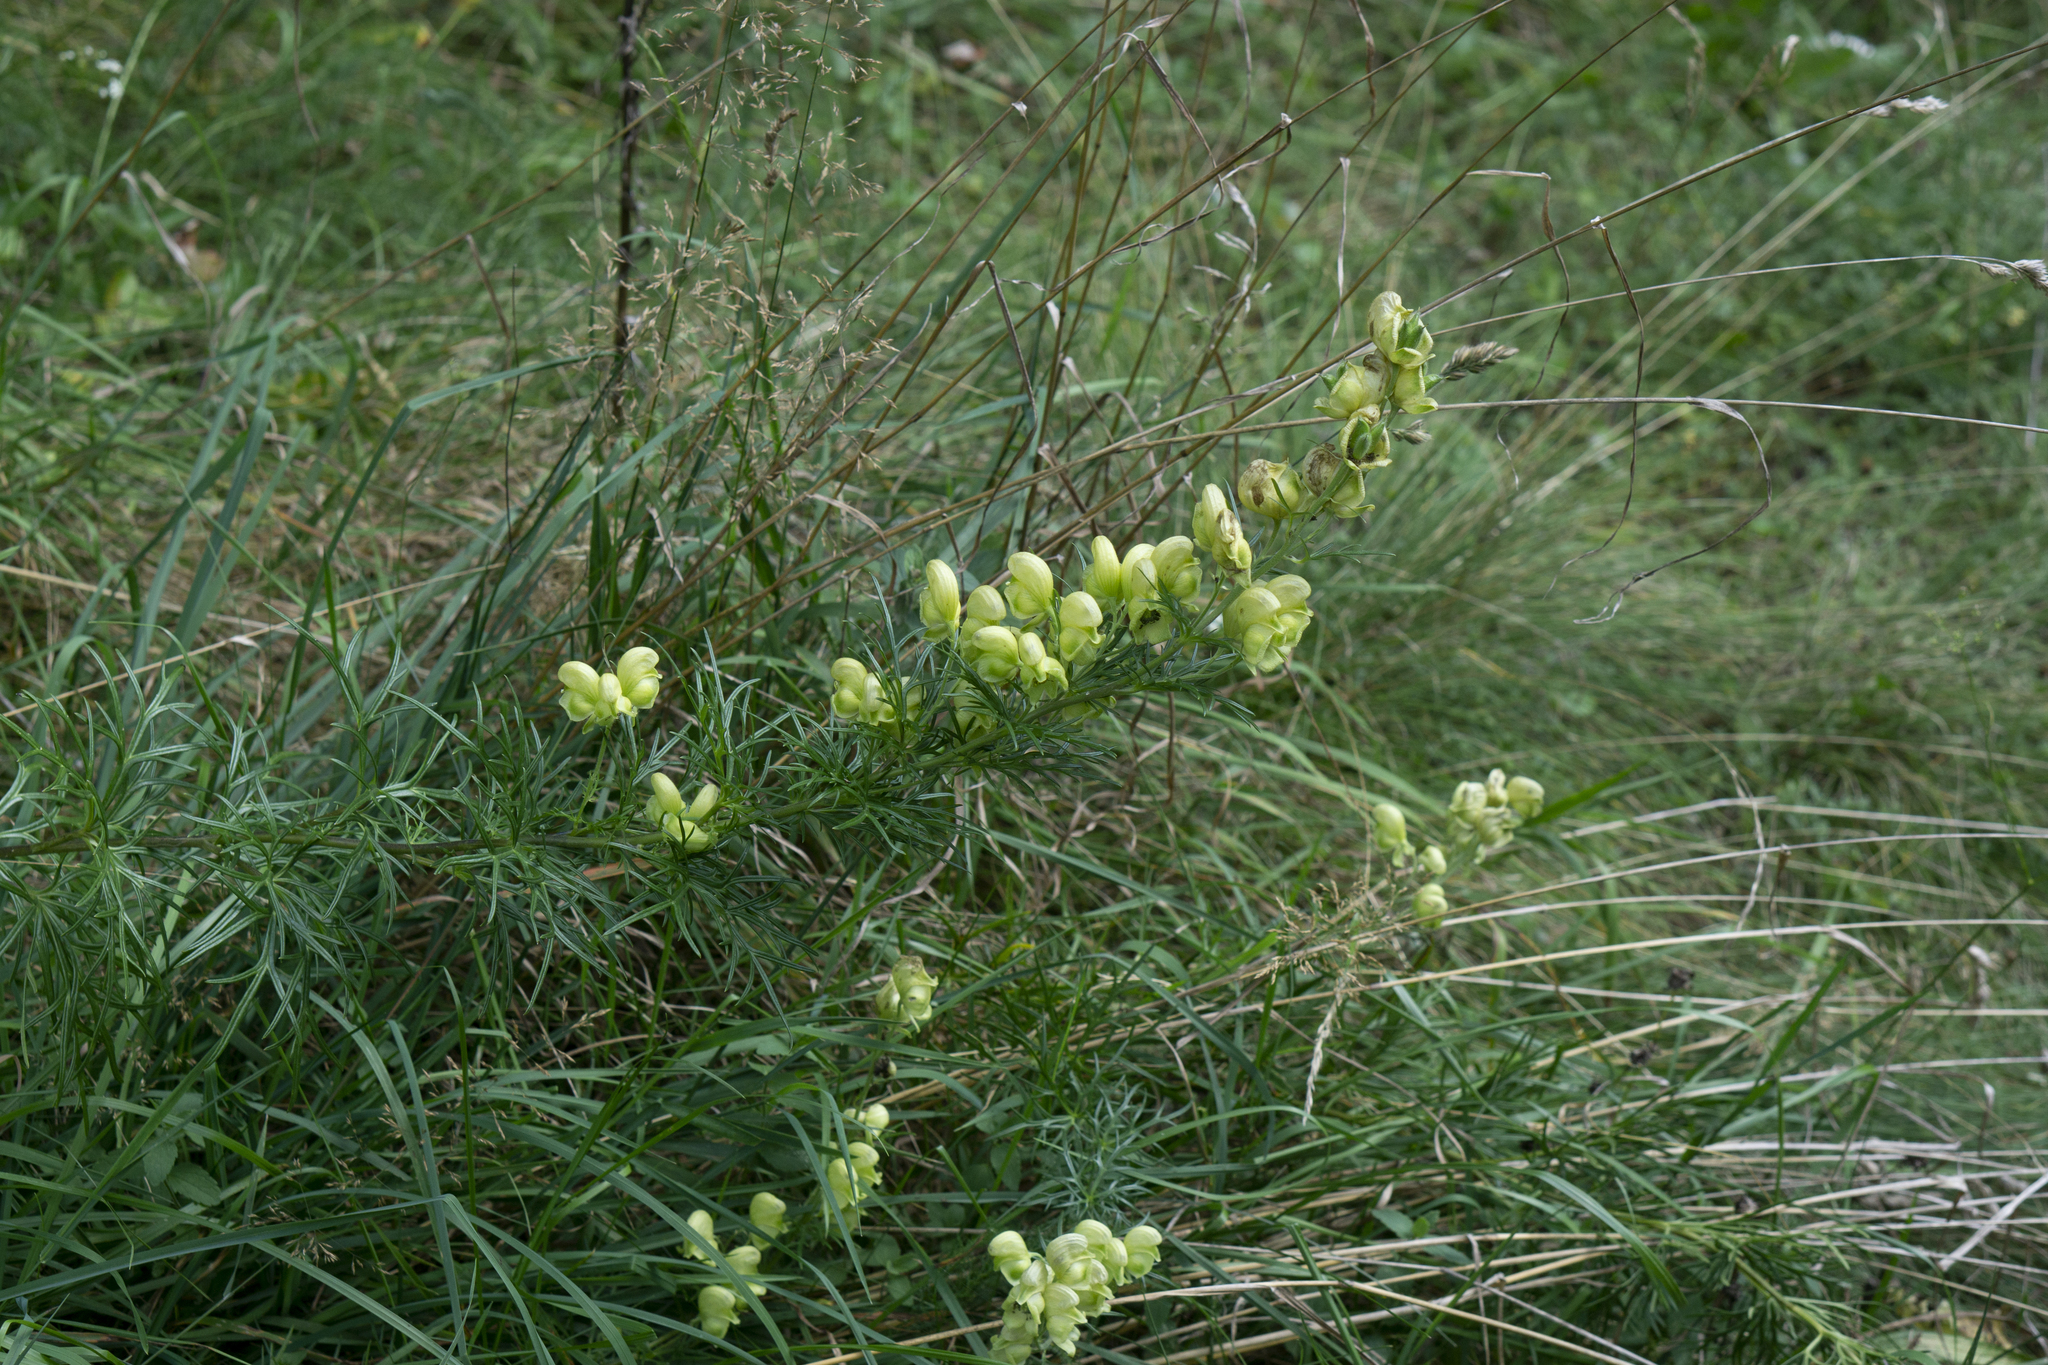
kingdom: Plantae
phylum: Tracheophyta
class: Magnoliopsida
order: Ranunculales
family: Ranunculaceae
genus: Aconitum
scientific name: Aconitum anthora
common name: Yellow monkshood
